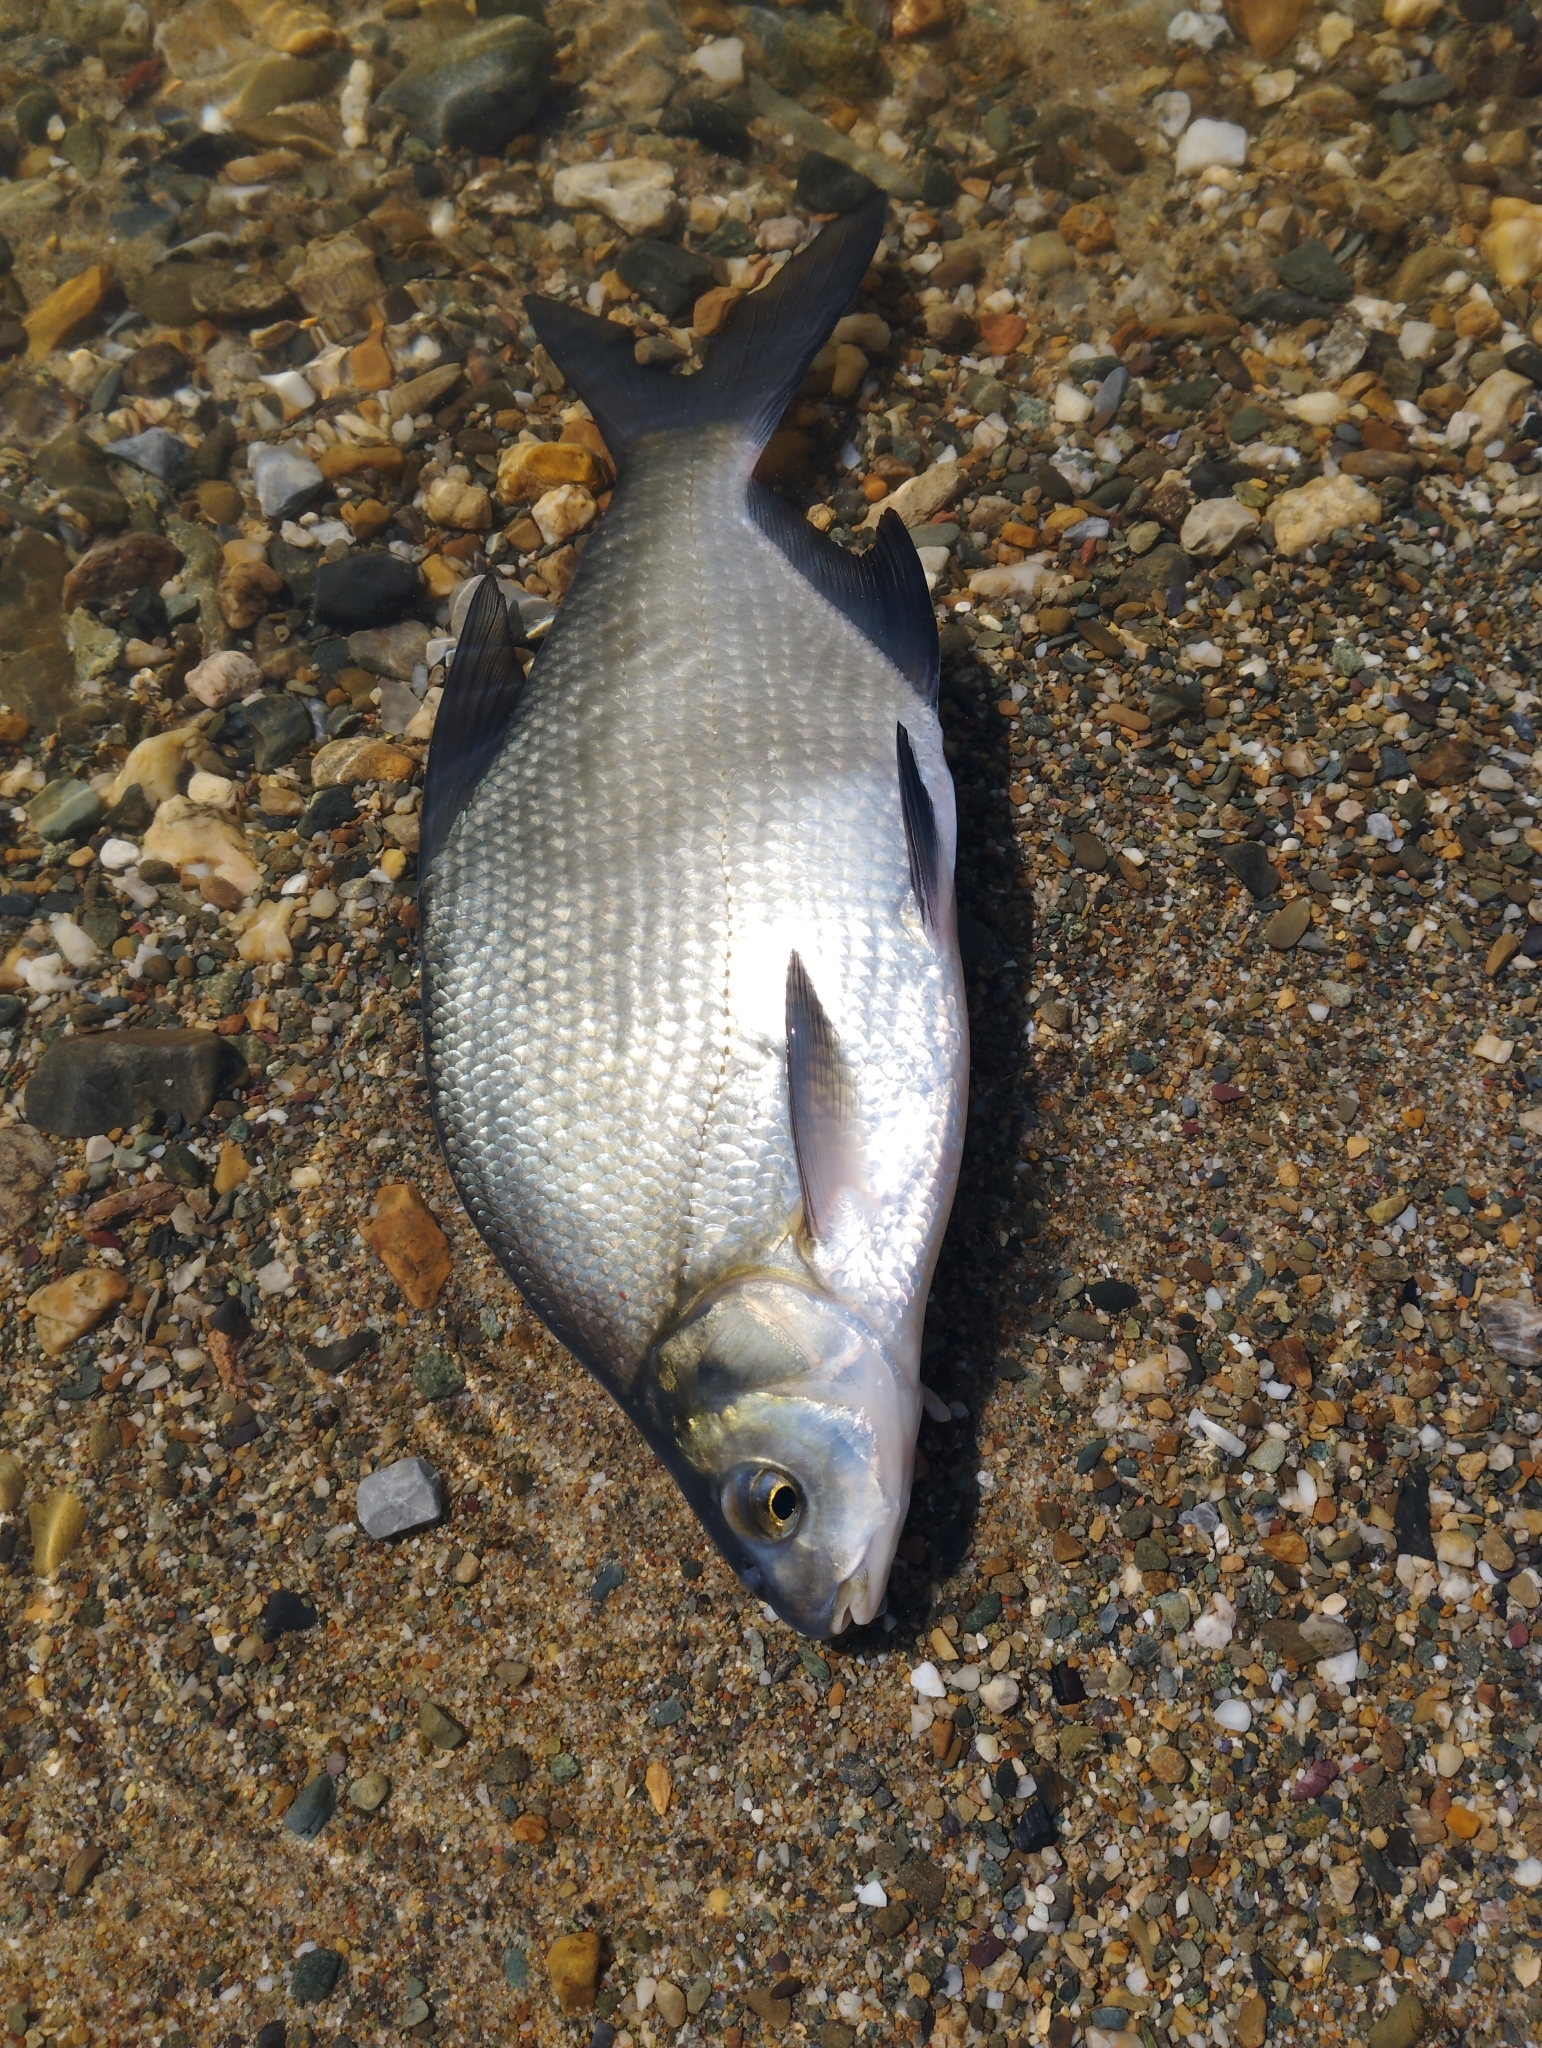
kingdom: Animalia
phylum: Chordata
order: Cypriniformes
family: Cyprinidae
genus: Abramis
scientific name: Abramis brama
